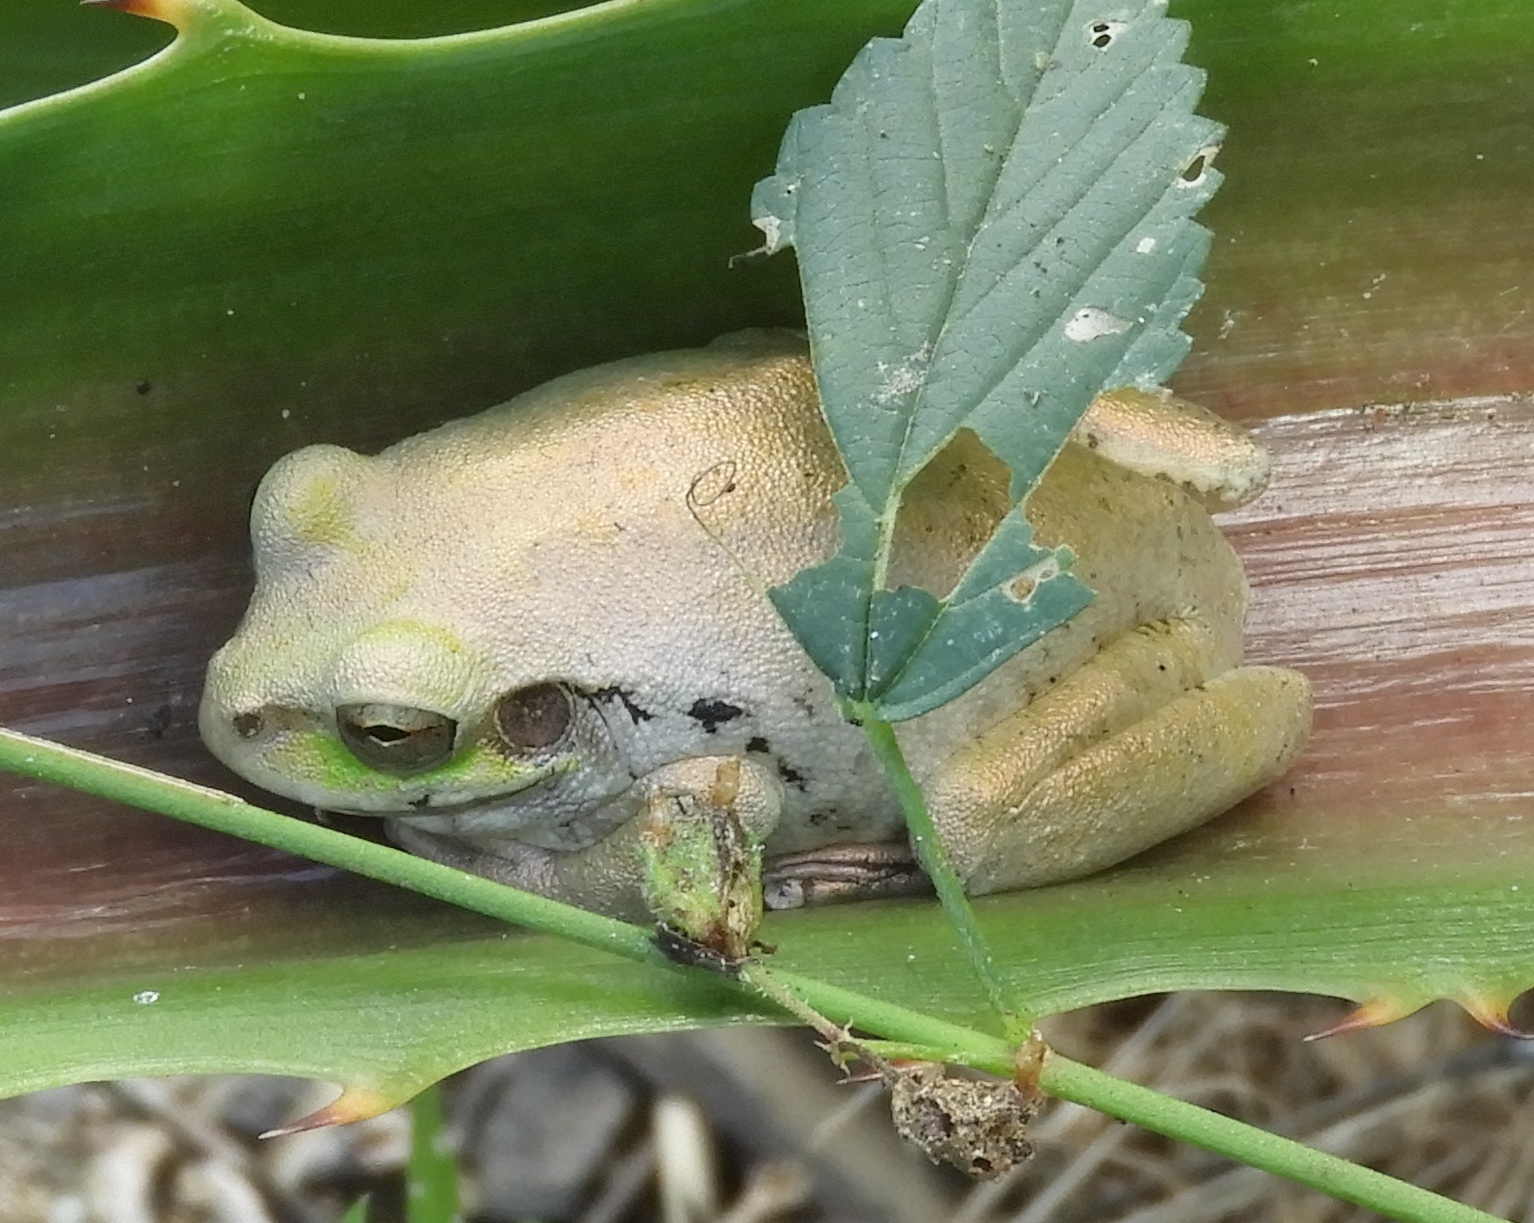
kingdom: Animalia
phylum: Chordata
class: Amphibia
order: Anura
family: Hylidae
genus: Smilisca
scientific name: Smilisca baudinii
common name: Mexican smilisca
